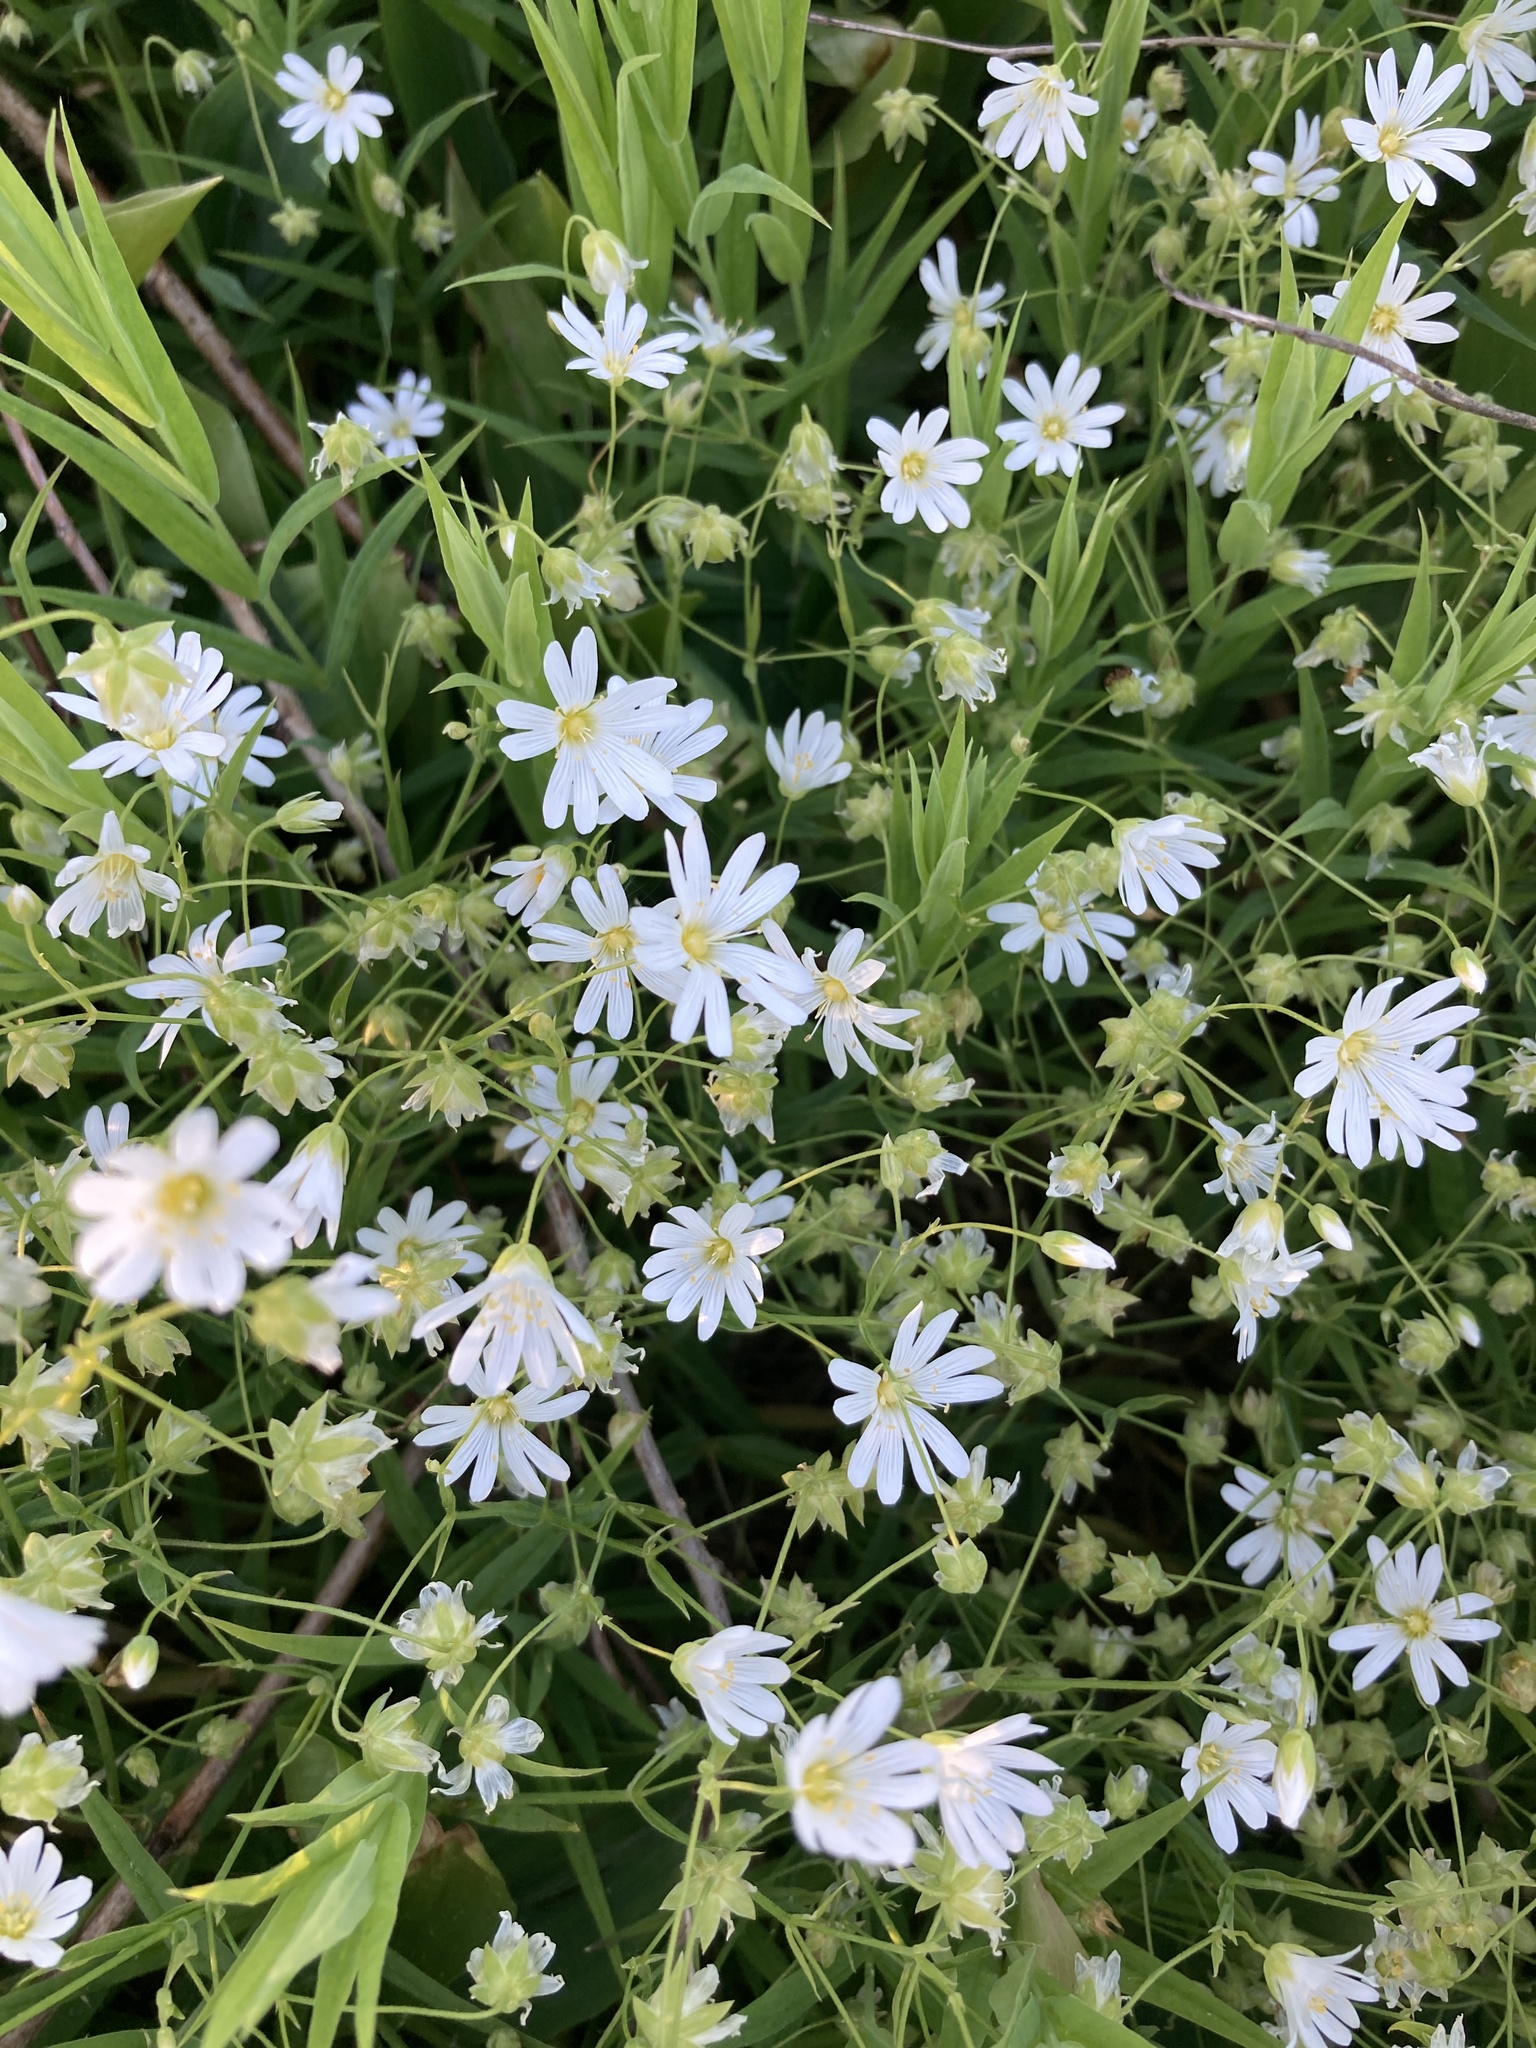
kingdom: Plantae
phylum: Tracheophyta
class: Magnoliopsida
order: Caryophyllales
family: Caryophyllaceae
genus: Rabelera
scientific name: Rabelera holostea
